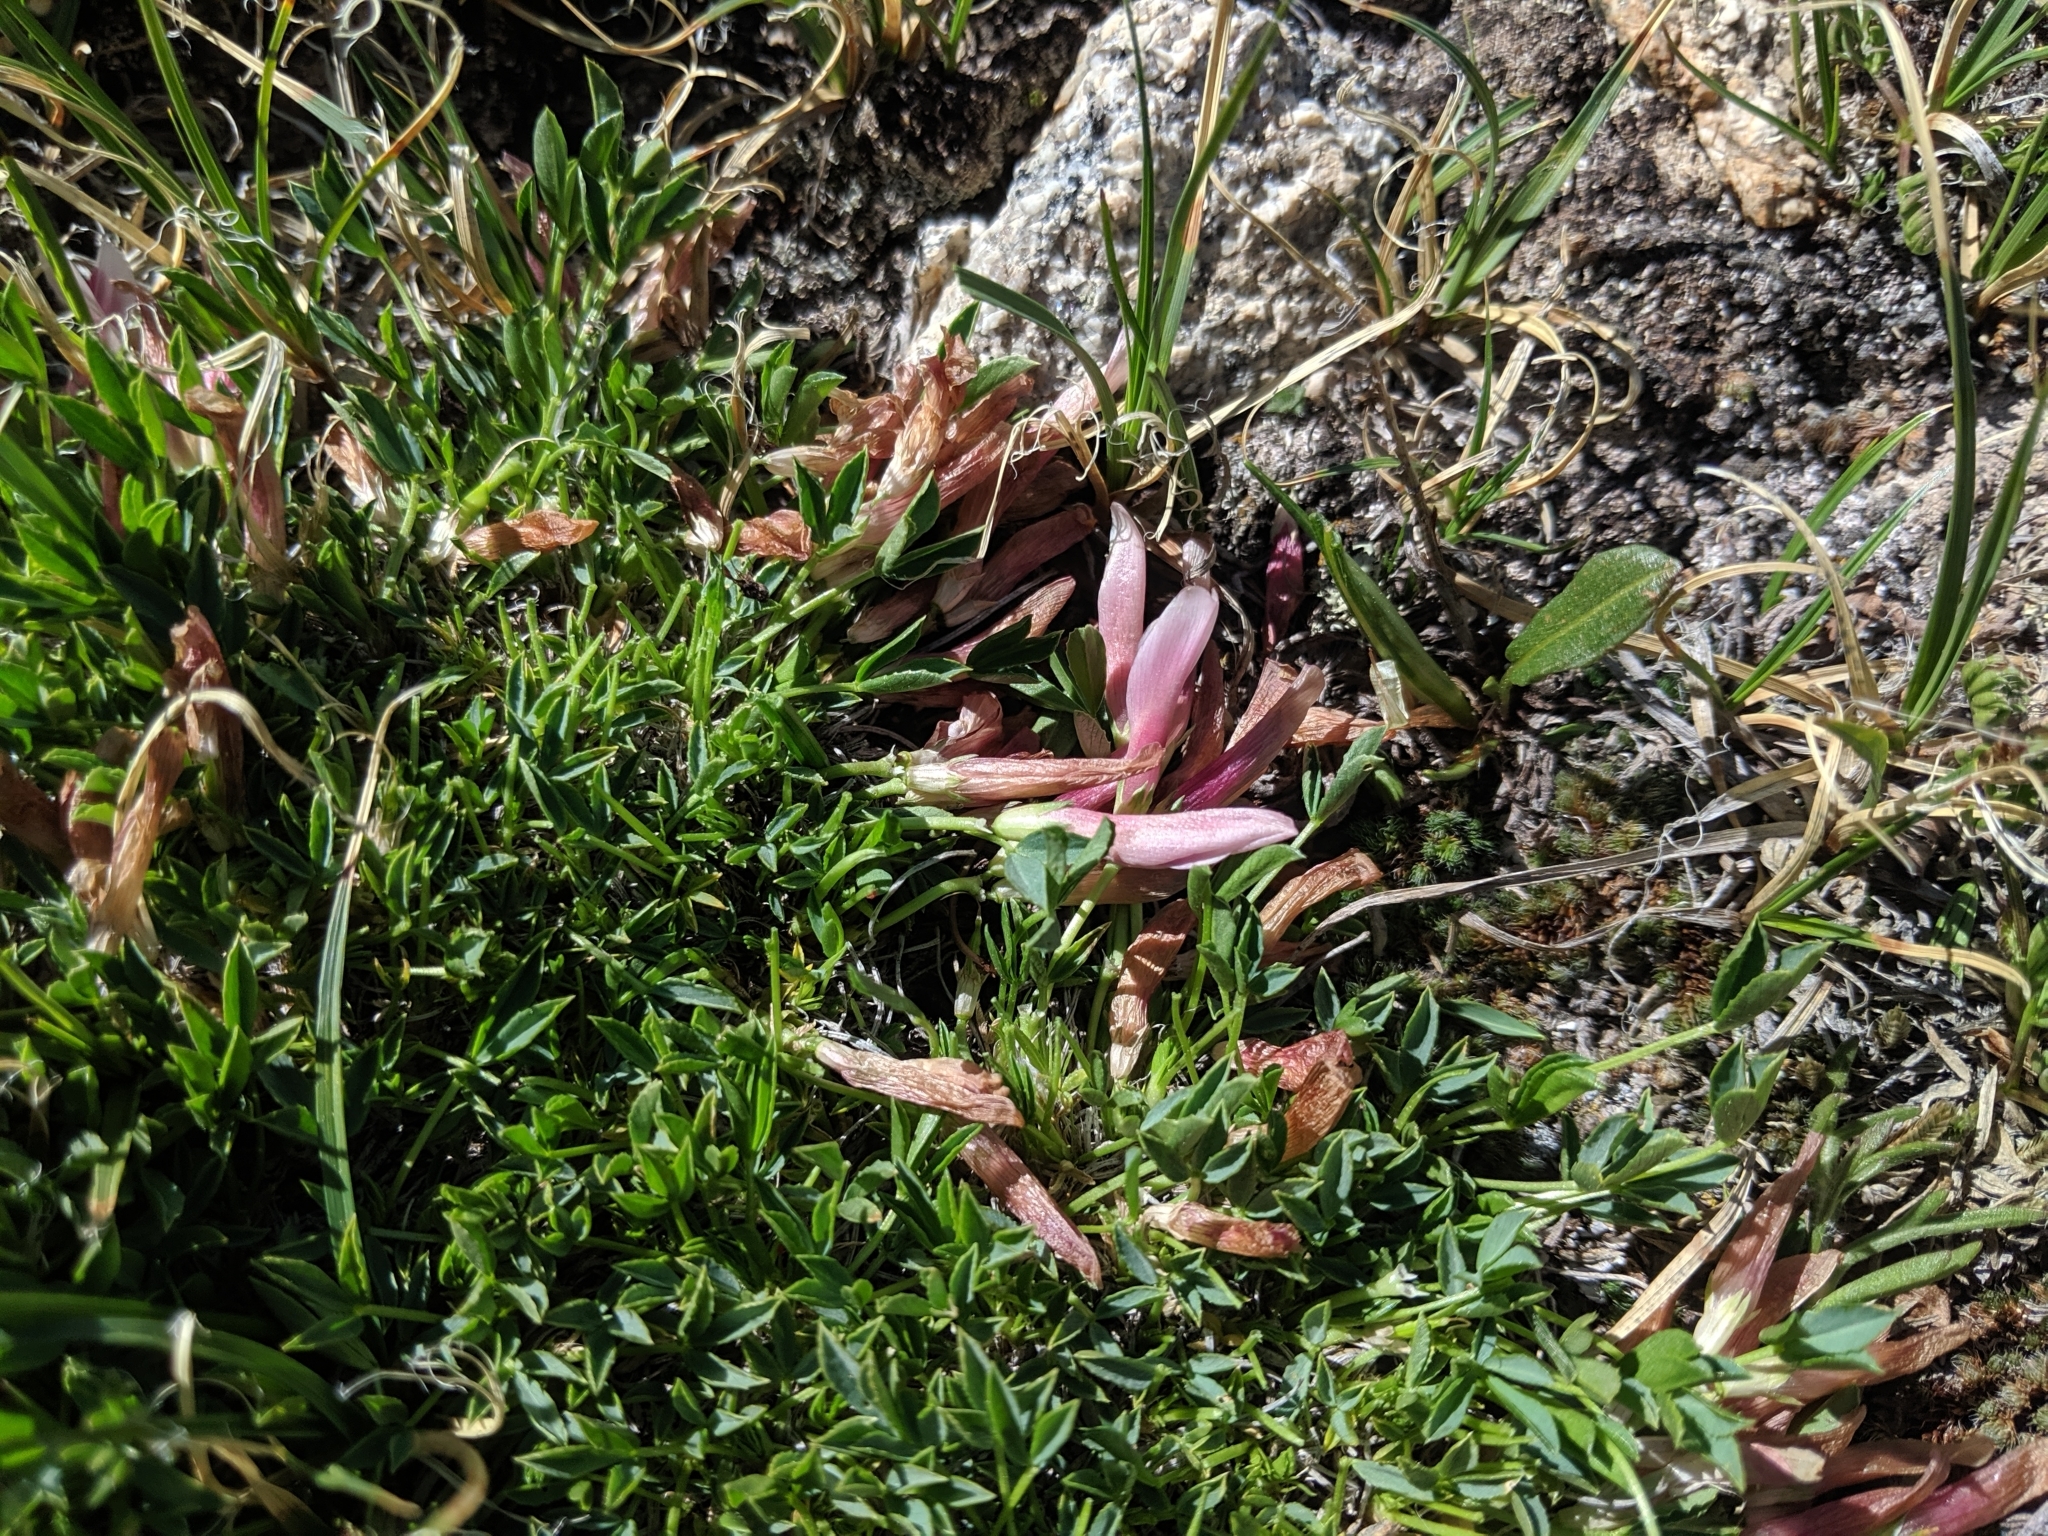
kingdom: Plantae
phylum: Tracheophyta
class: Magnoliopsida
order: Fabales
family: Fabaceae
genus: Trifolium
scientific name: Trifolium nanum
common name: Tundra clover
